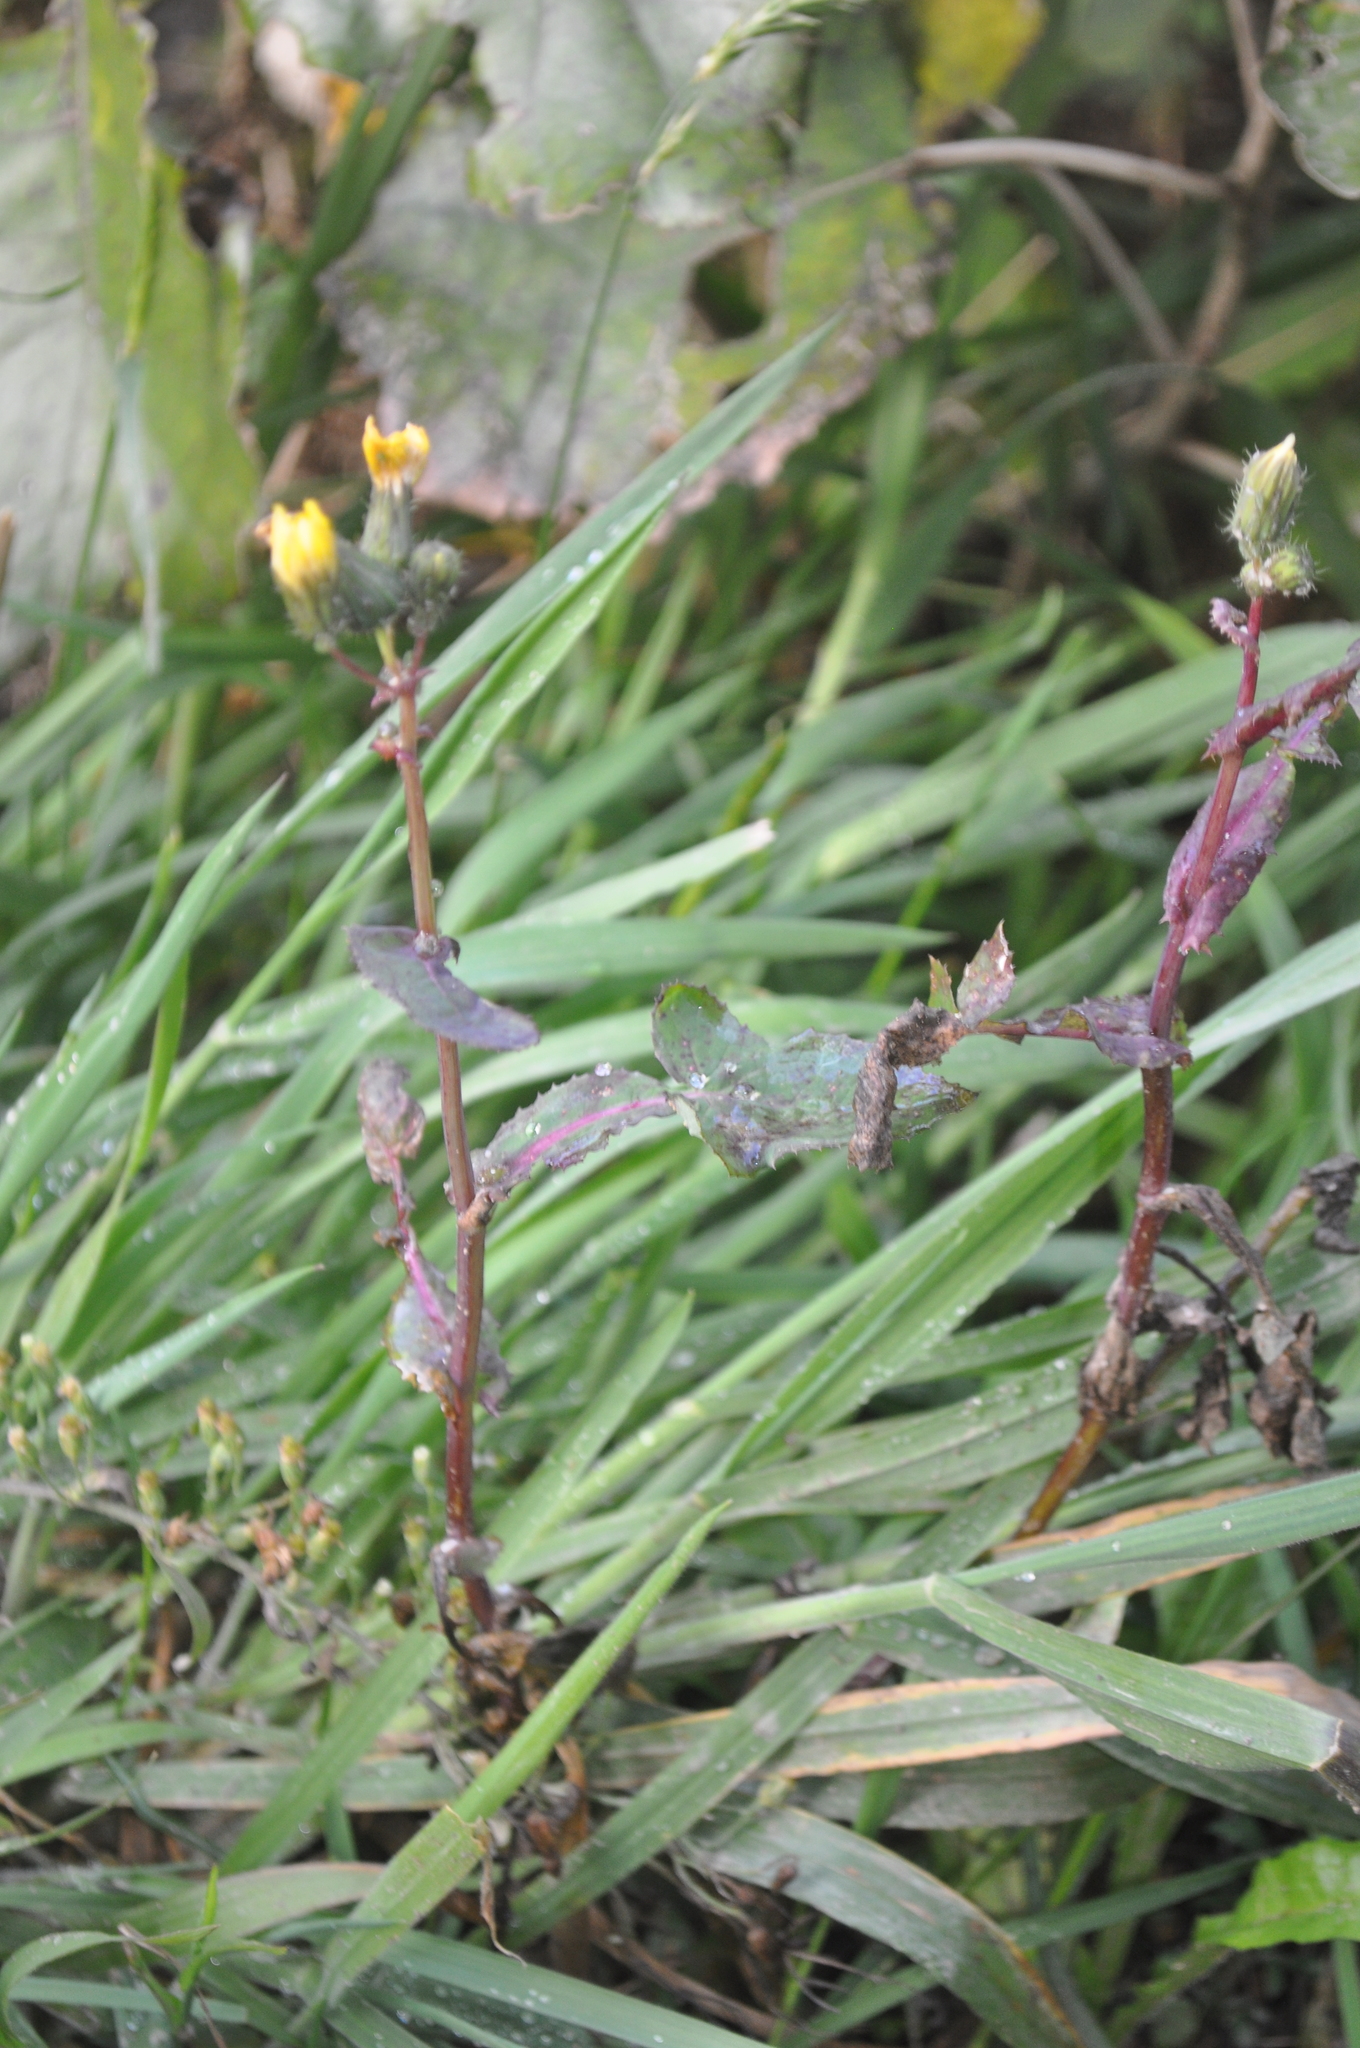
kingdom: Plantae
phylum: Tracheophyta
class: Magnoliopsida
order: Asterales
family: Asteraceae
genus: Sonchus
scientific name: Sonchus oleraceus
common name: Common sowthistle
